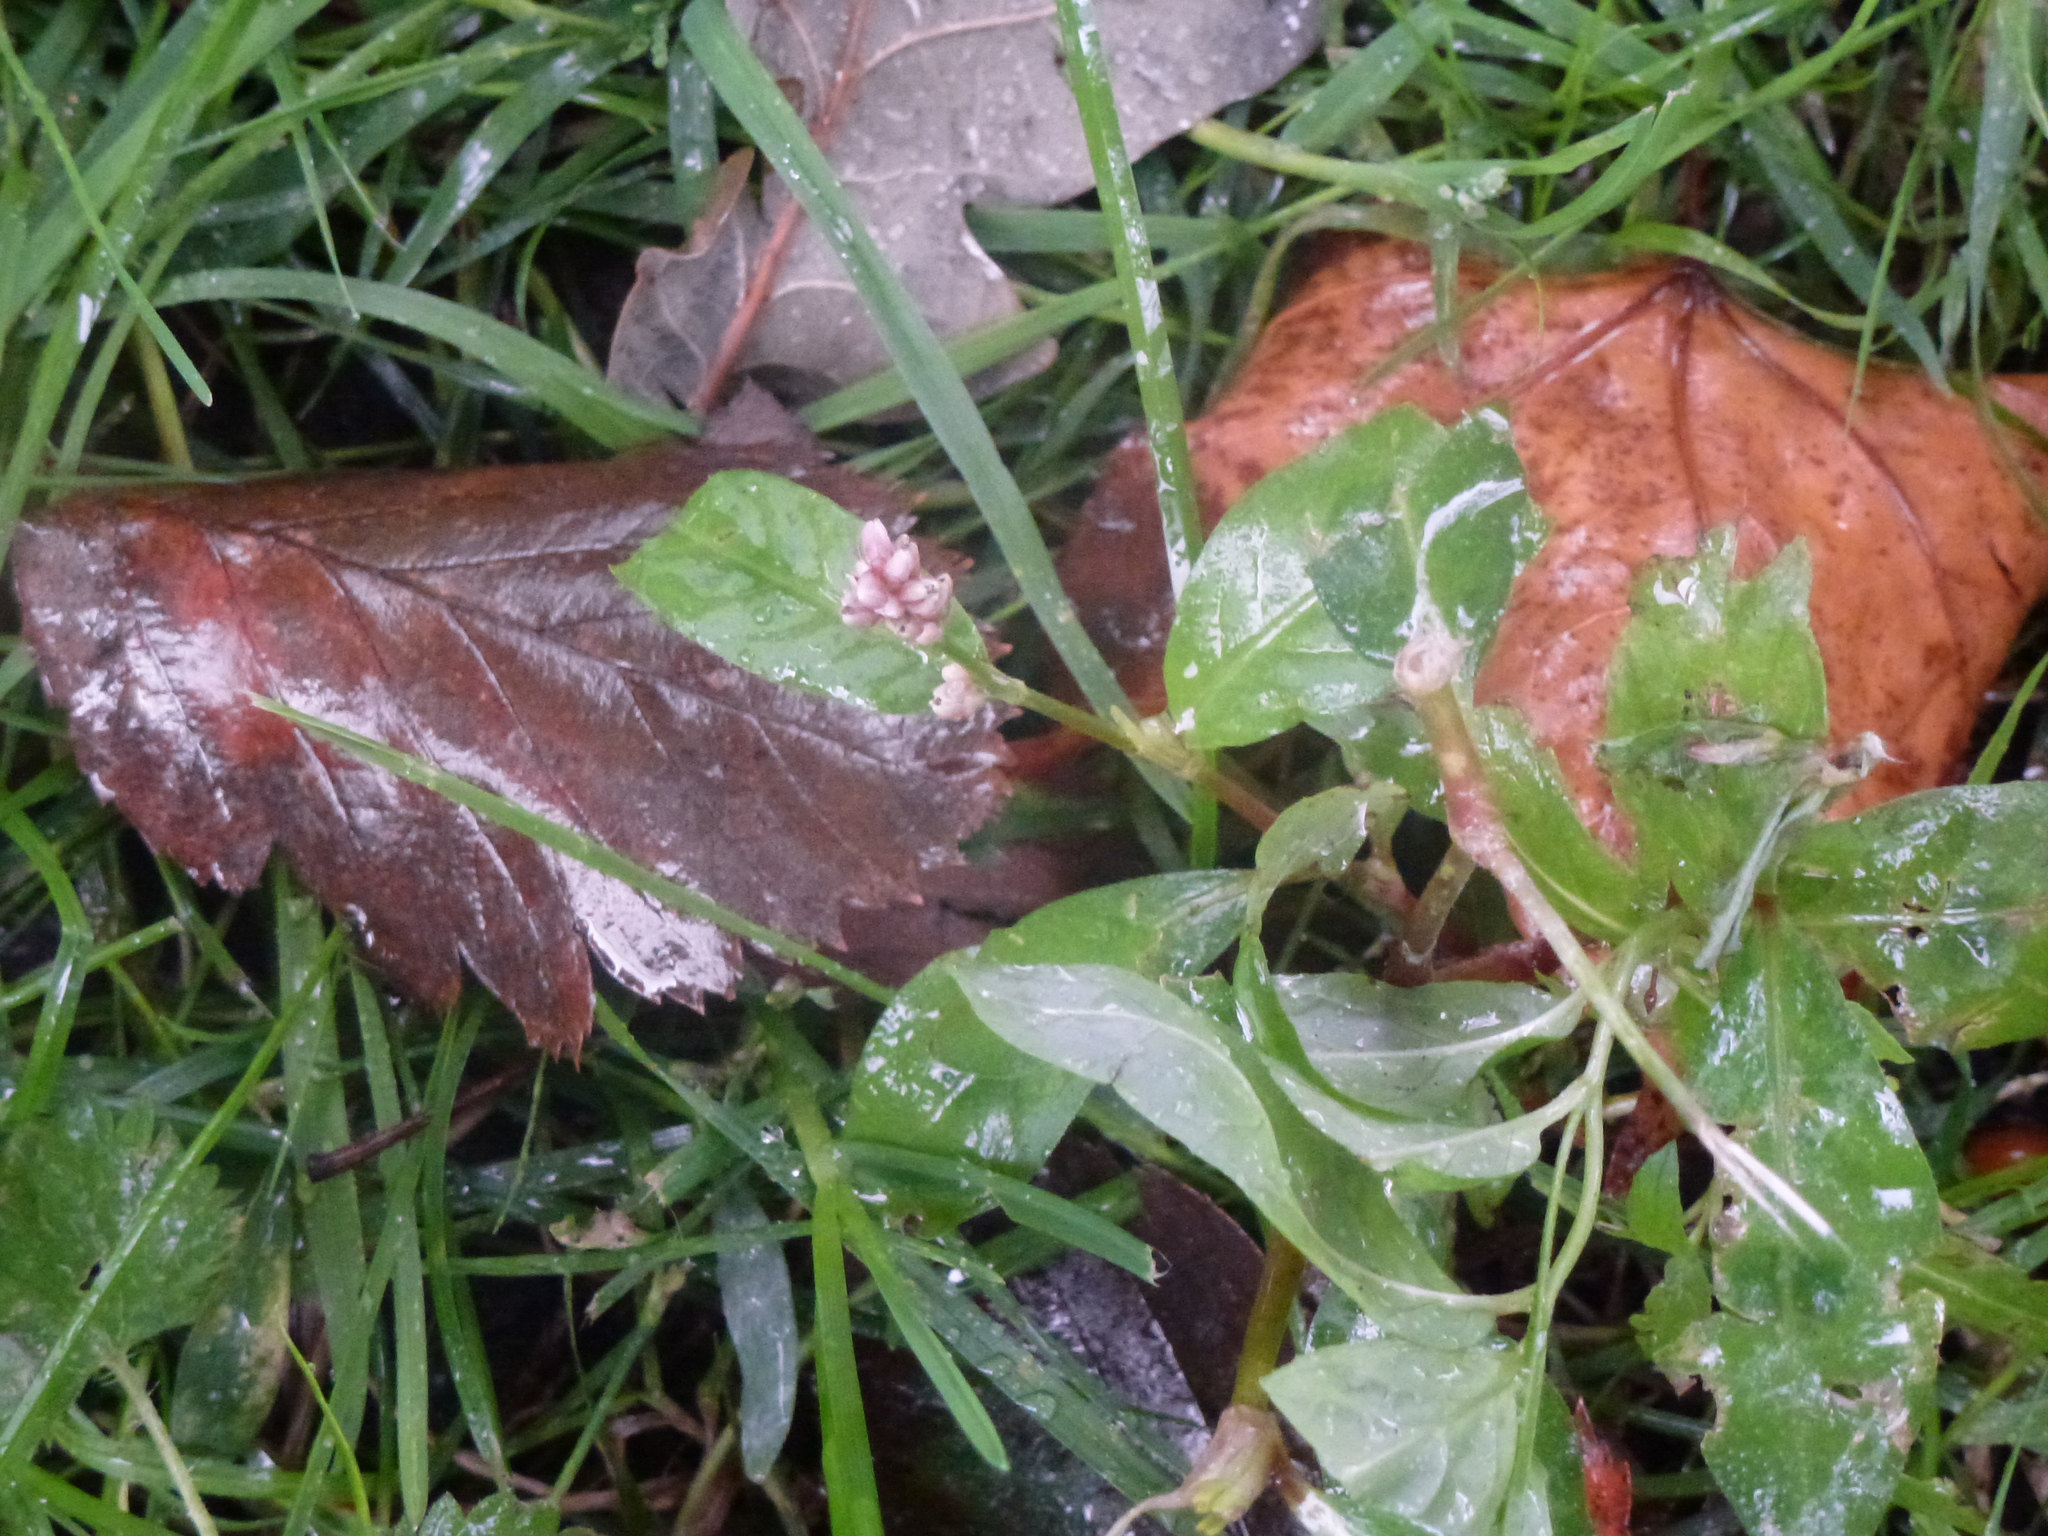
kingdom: Plantae
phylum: Tracheophyta
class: Magnoliopsida
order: Caryophyllales
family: Polygonaceae
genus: Persicaria
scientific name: Persicaria maculosa
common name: Redshank
